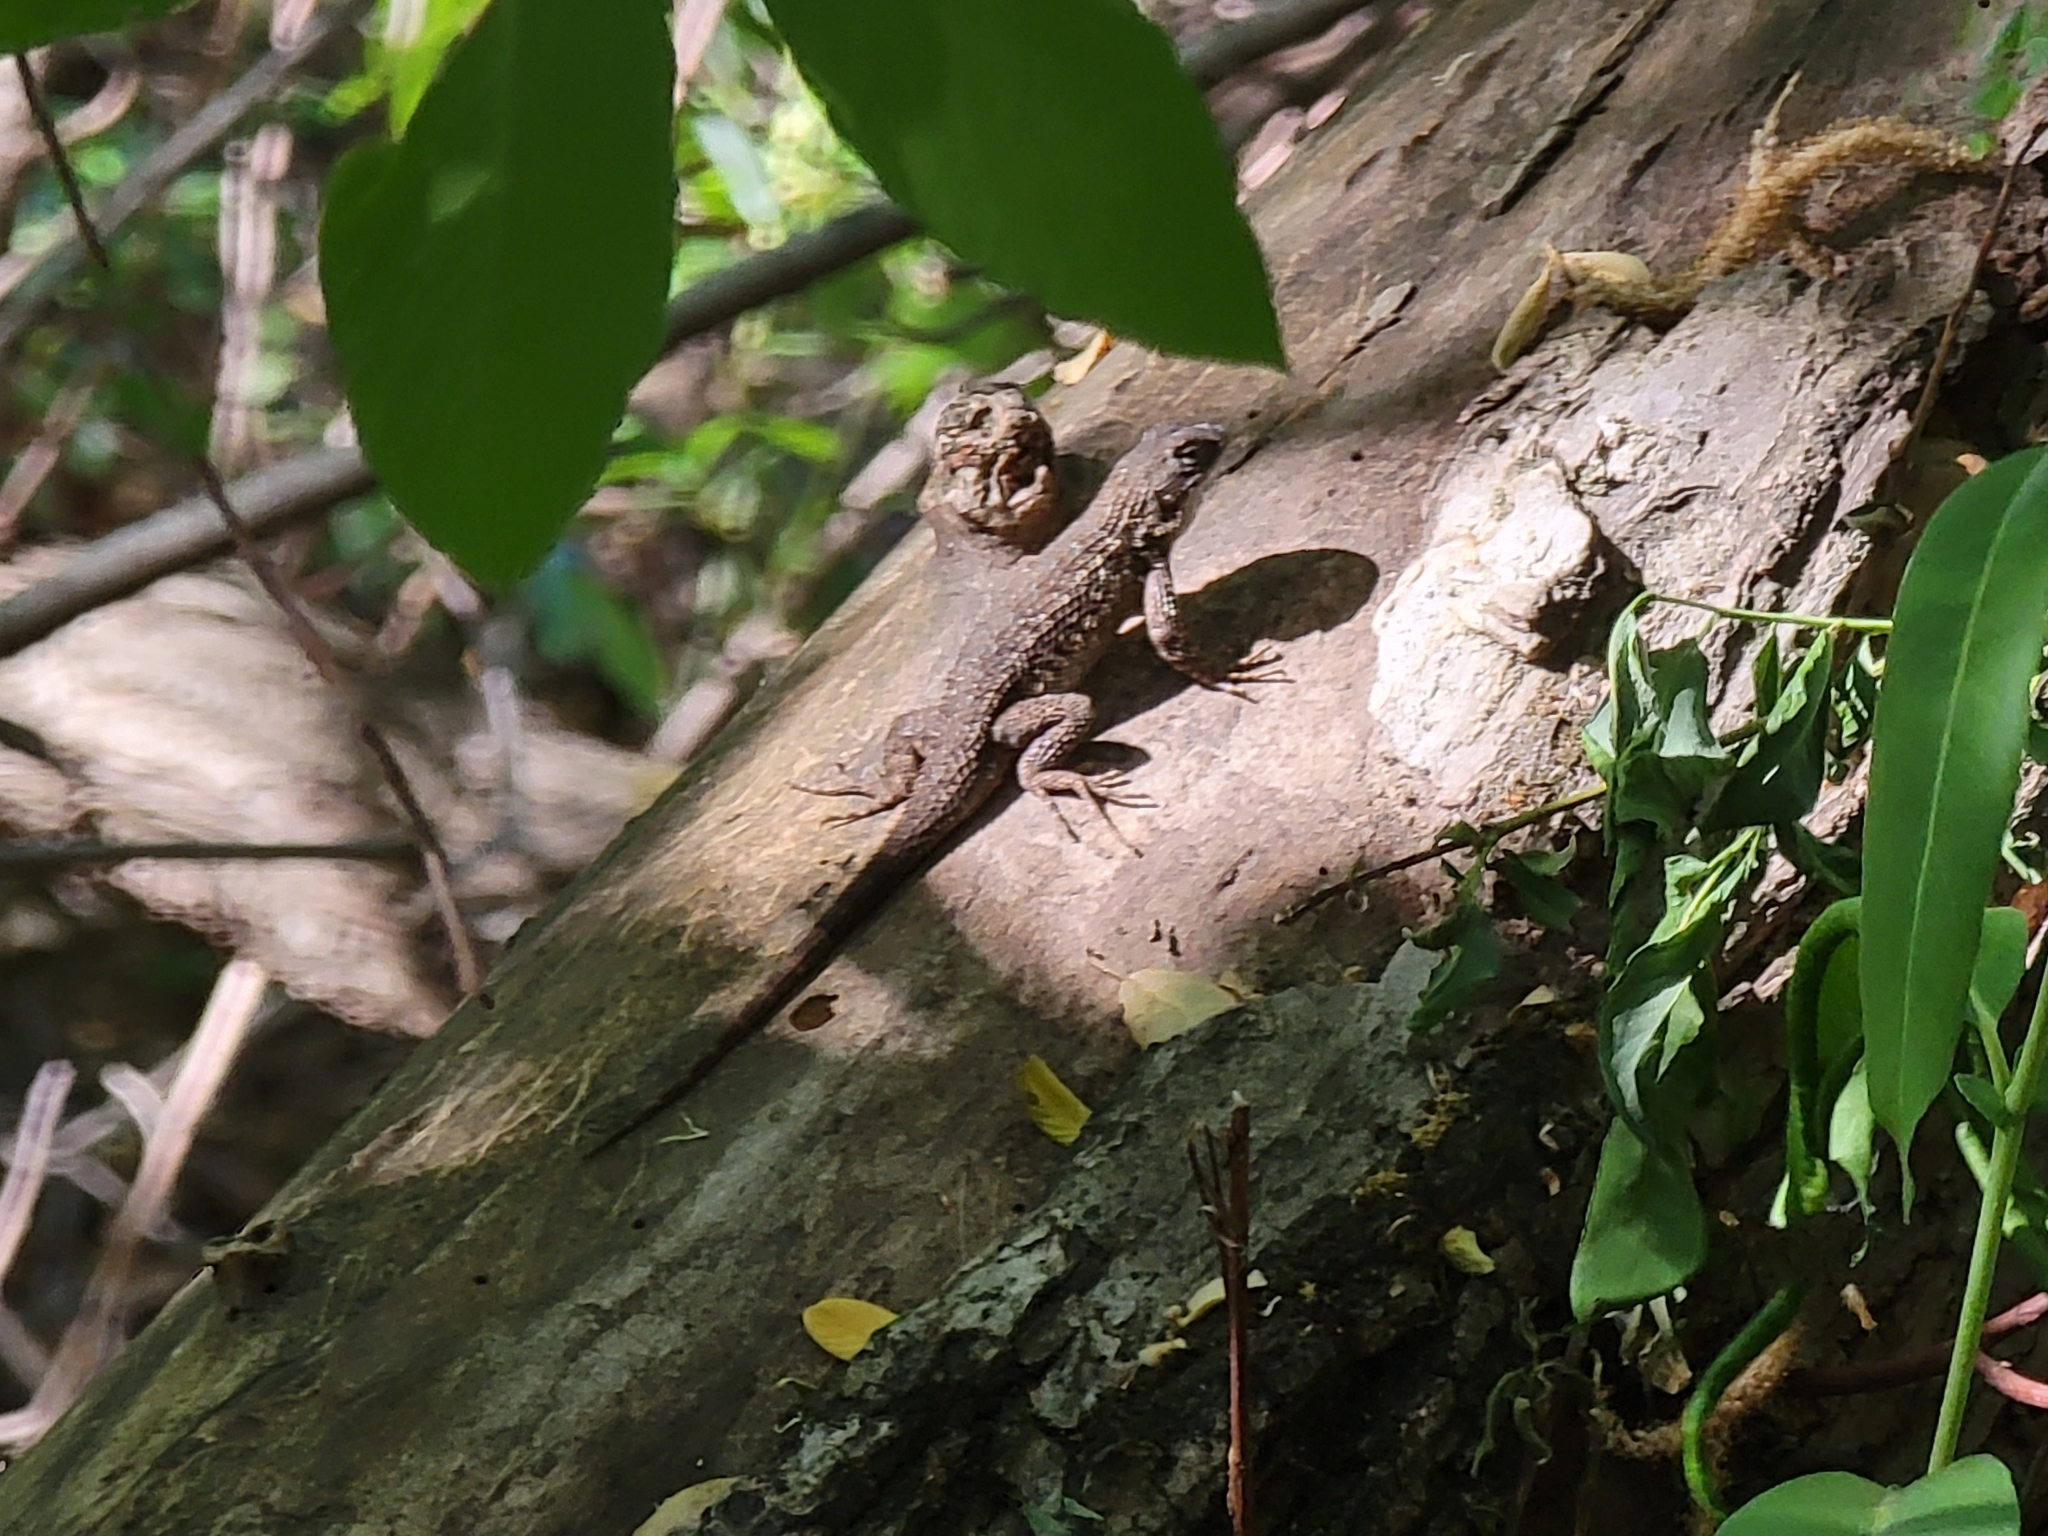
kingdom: Animalia
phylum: Chordata
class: Squamata
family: Phrynosomatidae
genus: Sceloporus
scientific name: Sceloporus occidentalis
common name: Western fence lizard
